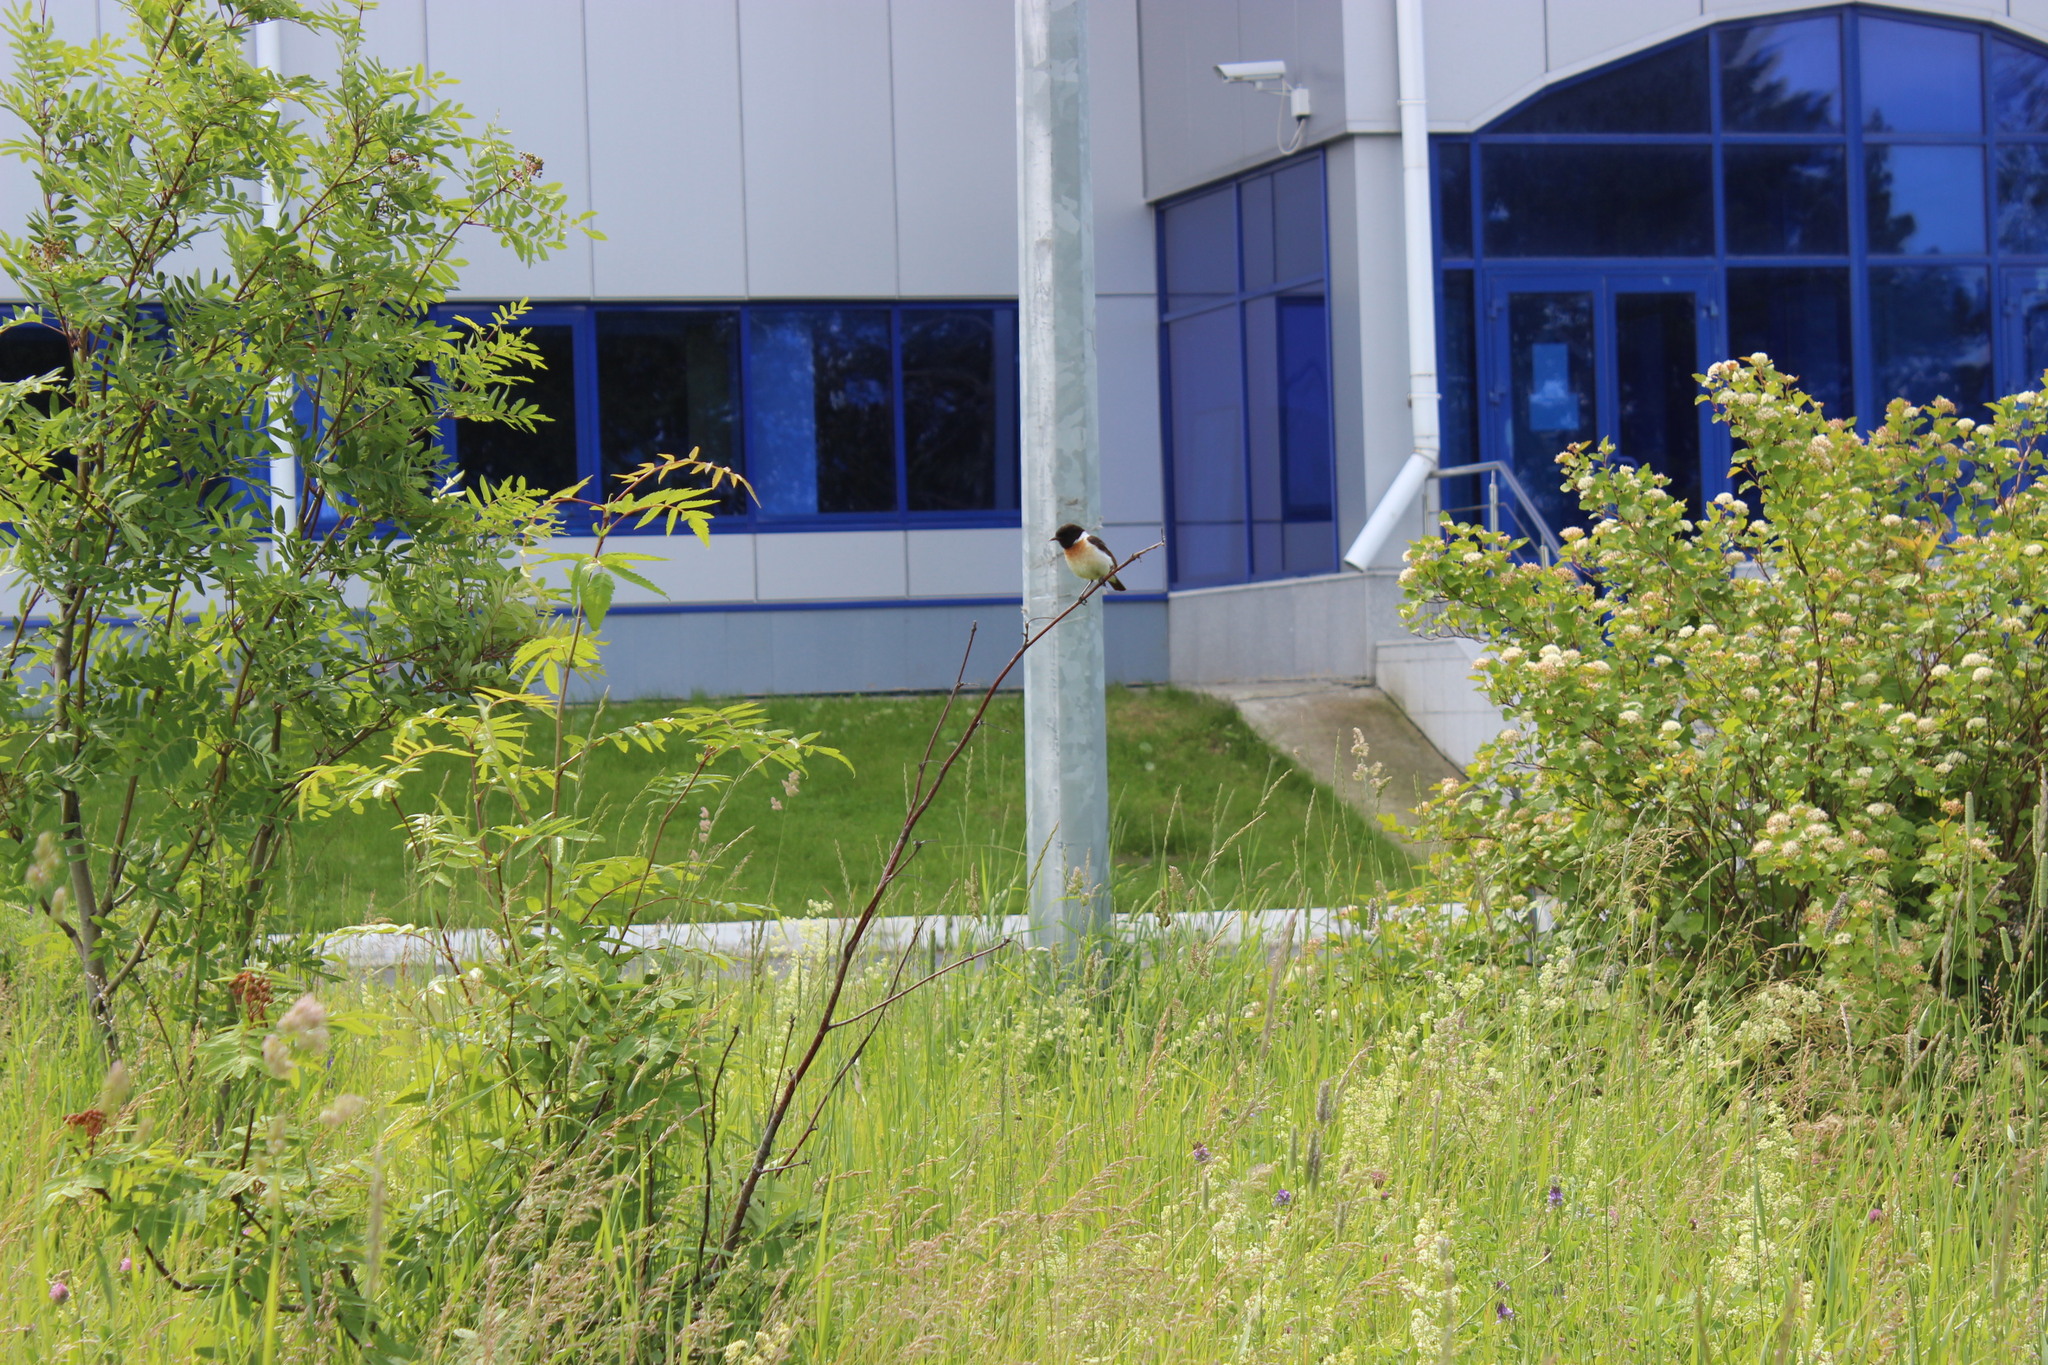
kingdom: Animalia
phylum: Chordata
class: Aves
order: Passeriformes
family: Muscicapidae
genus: Saxicola
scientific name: Saxicola maurus
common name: Siberian stonechat
